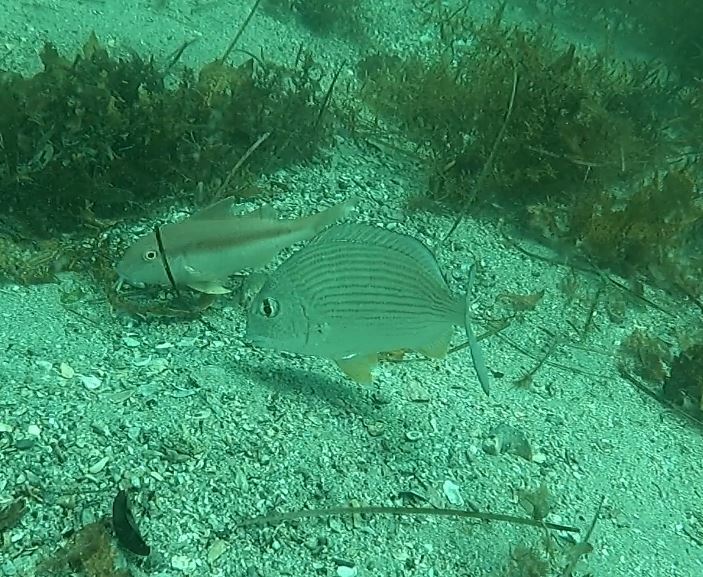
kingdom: Animalia
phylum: Chordata
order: Perciformes
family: Sparidae
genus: Rhabdosargus
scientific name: Rhabdosargus sarba
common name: Goldlined seabream
